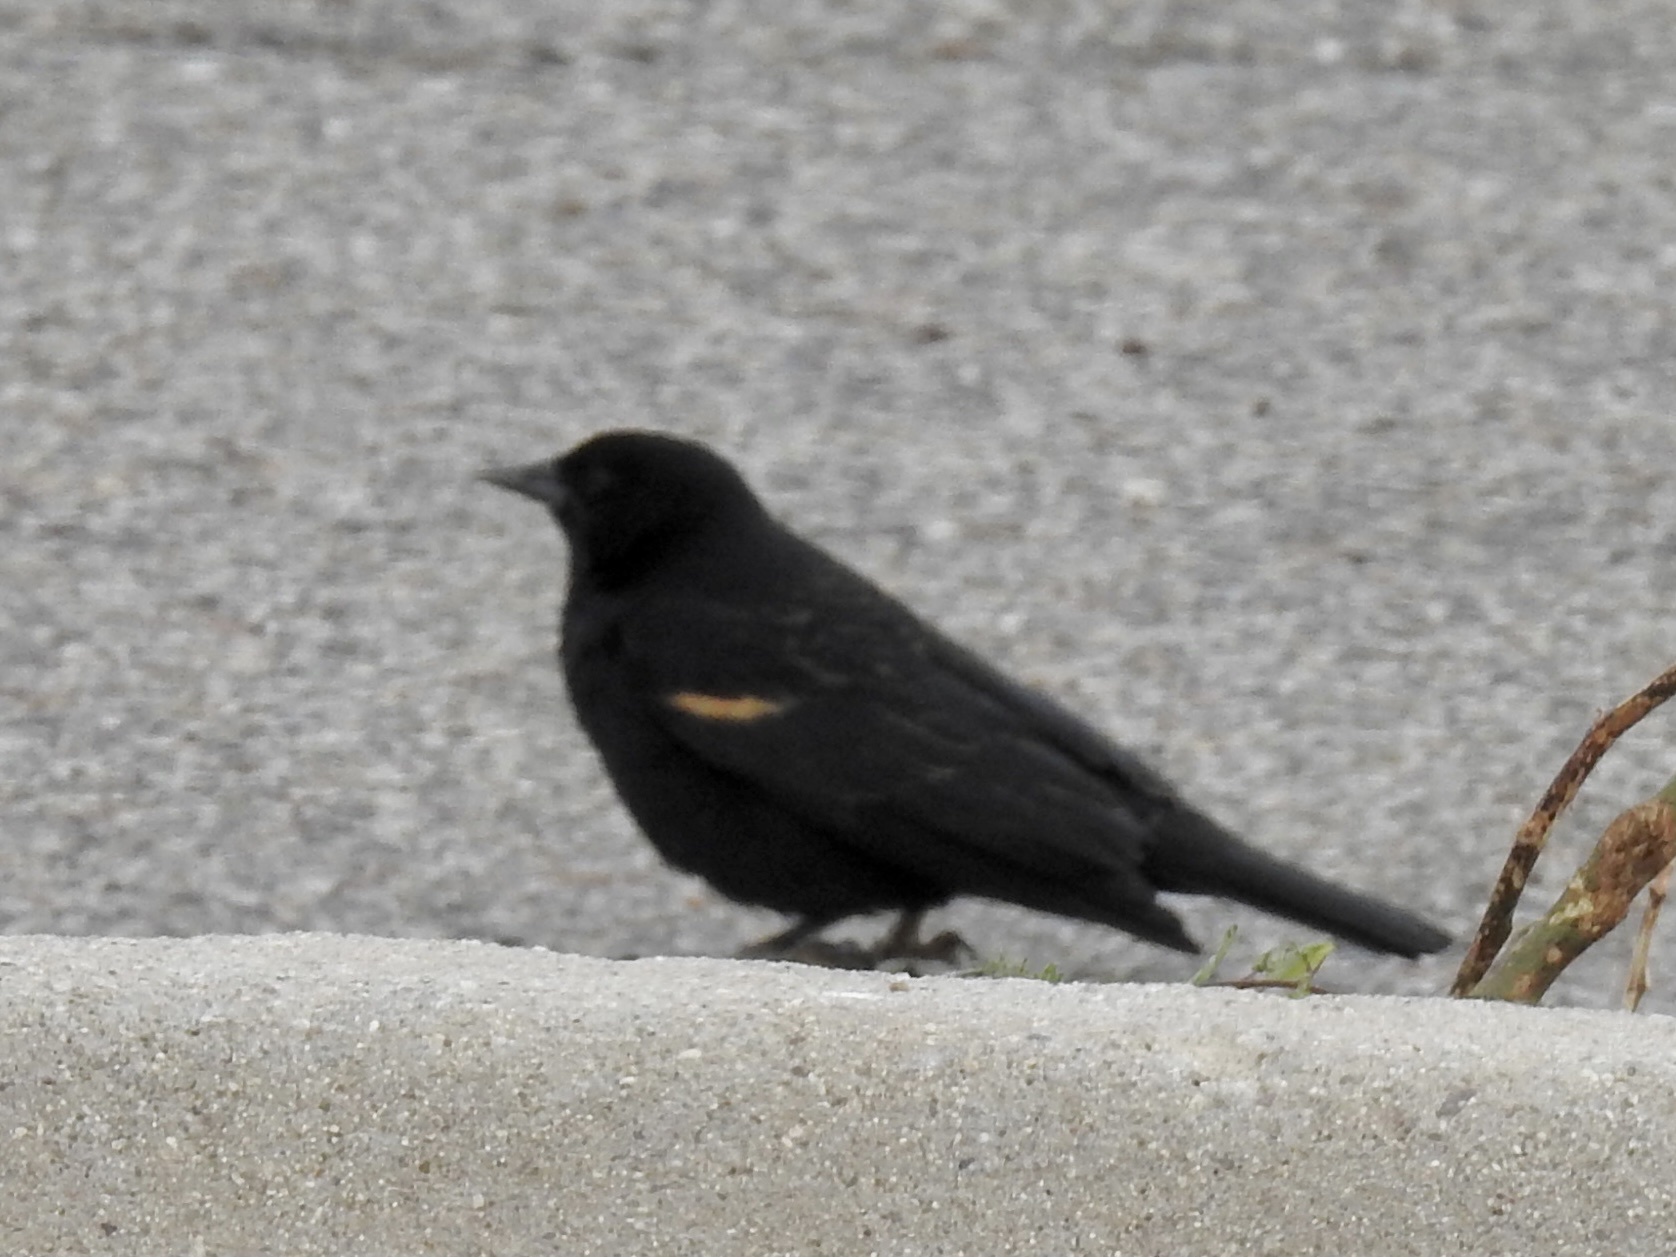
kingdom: Animalia
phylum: Chordata
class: Aves
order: Passeriformes
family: Icteridae
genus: Agelaius
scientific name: Agelaius phoeniceus
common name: Red-winged blackbird
